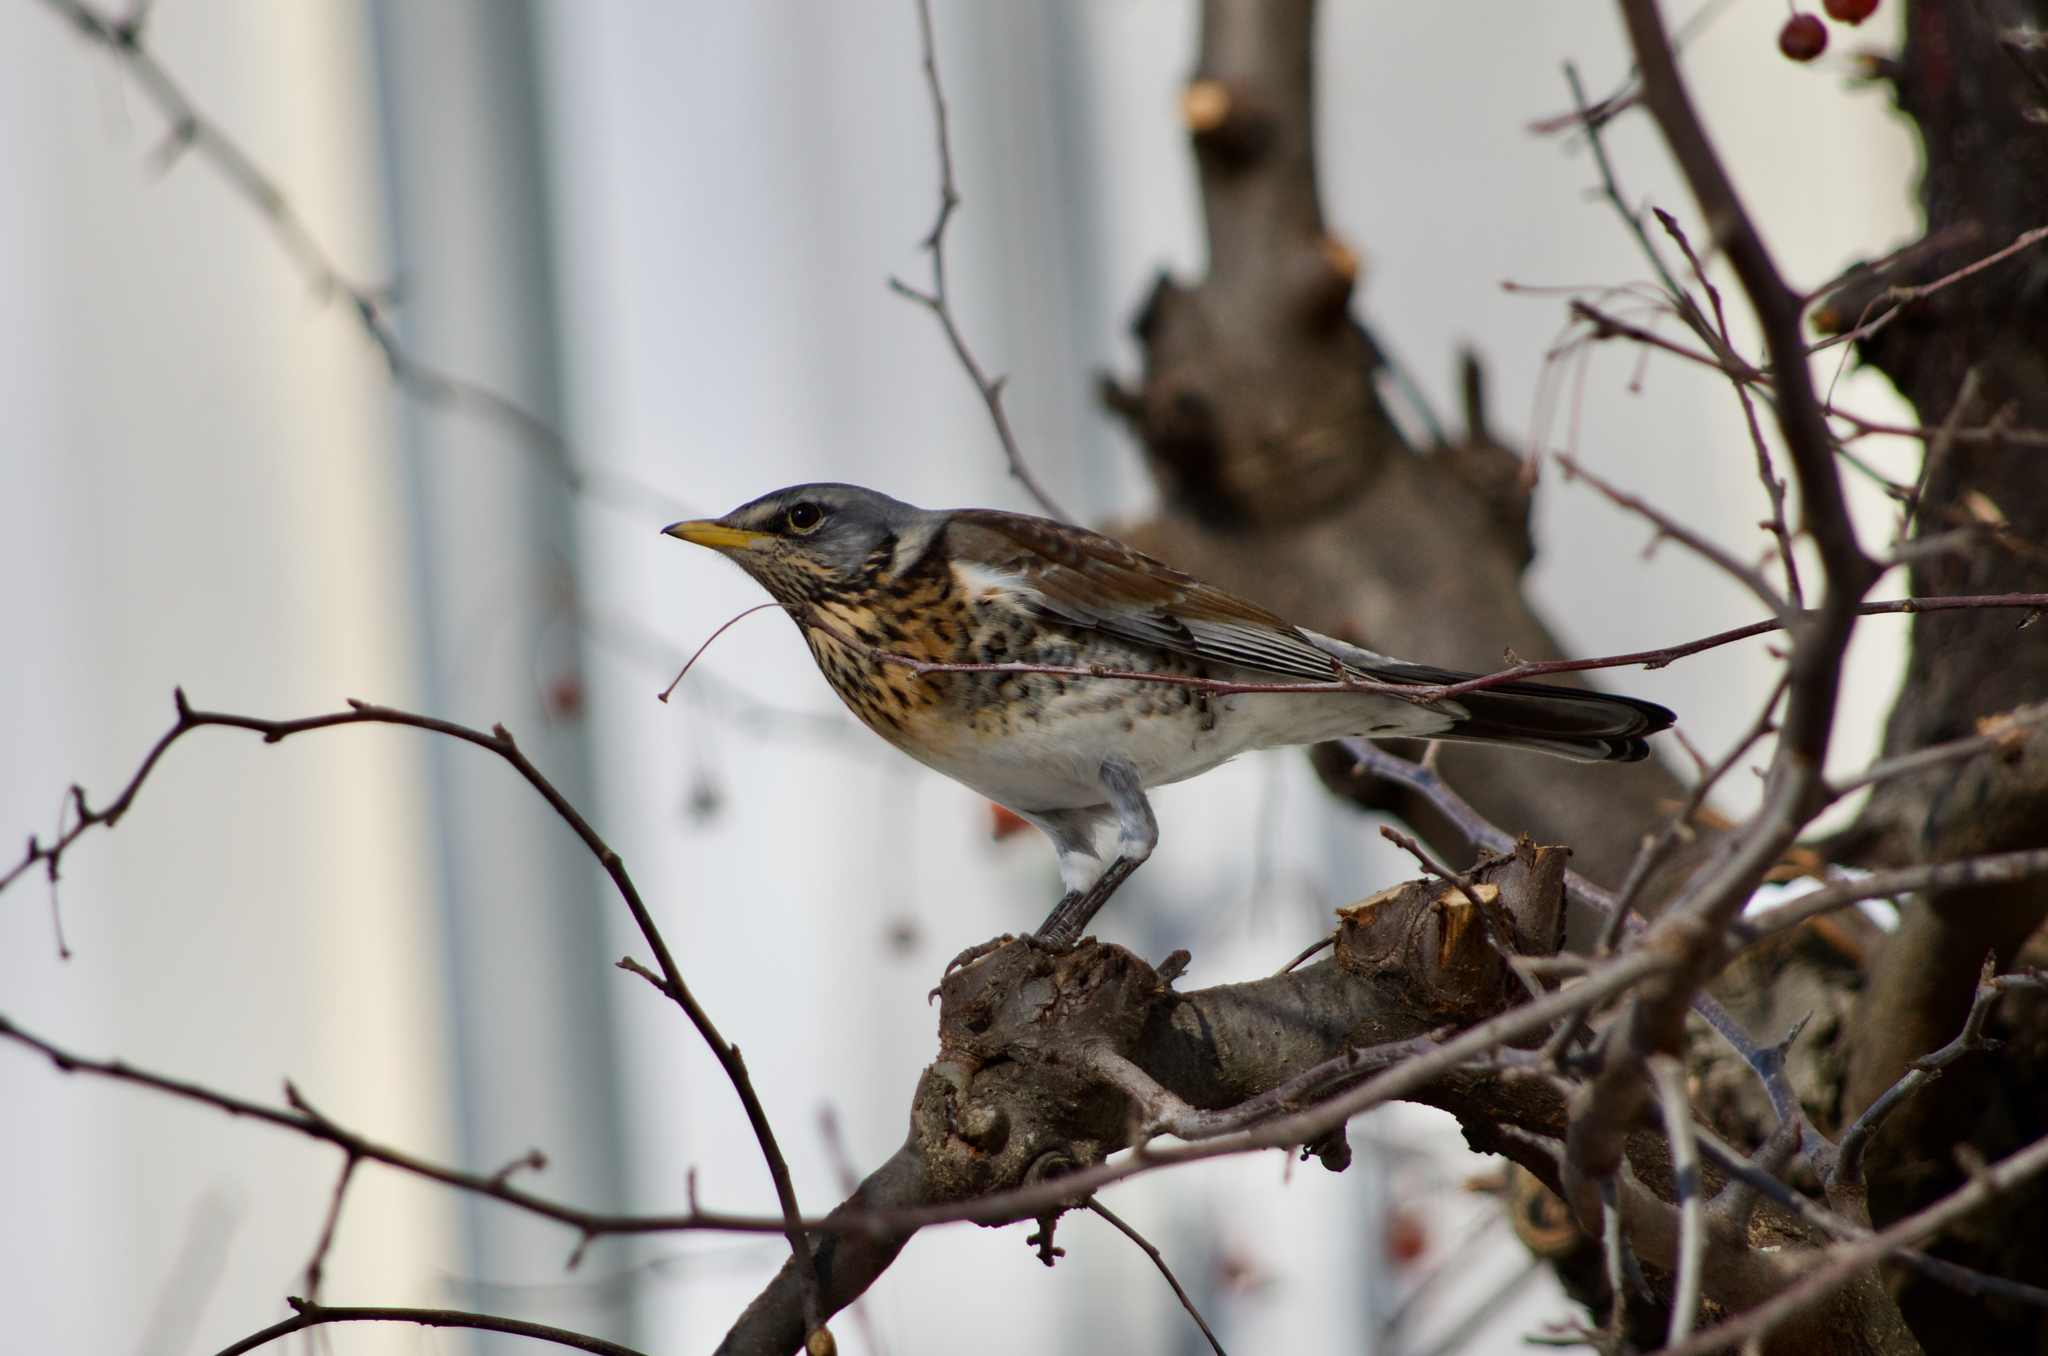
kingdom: Animalia
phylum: Chordata
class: Aves
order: Passeriformes
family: Turdidae
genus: Turdus
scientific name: Turdus pilaris
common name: Fieldfare
